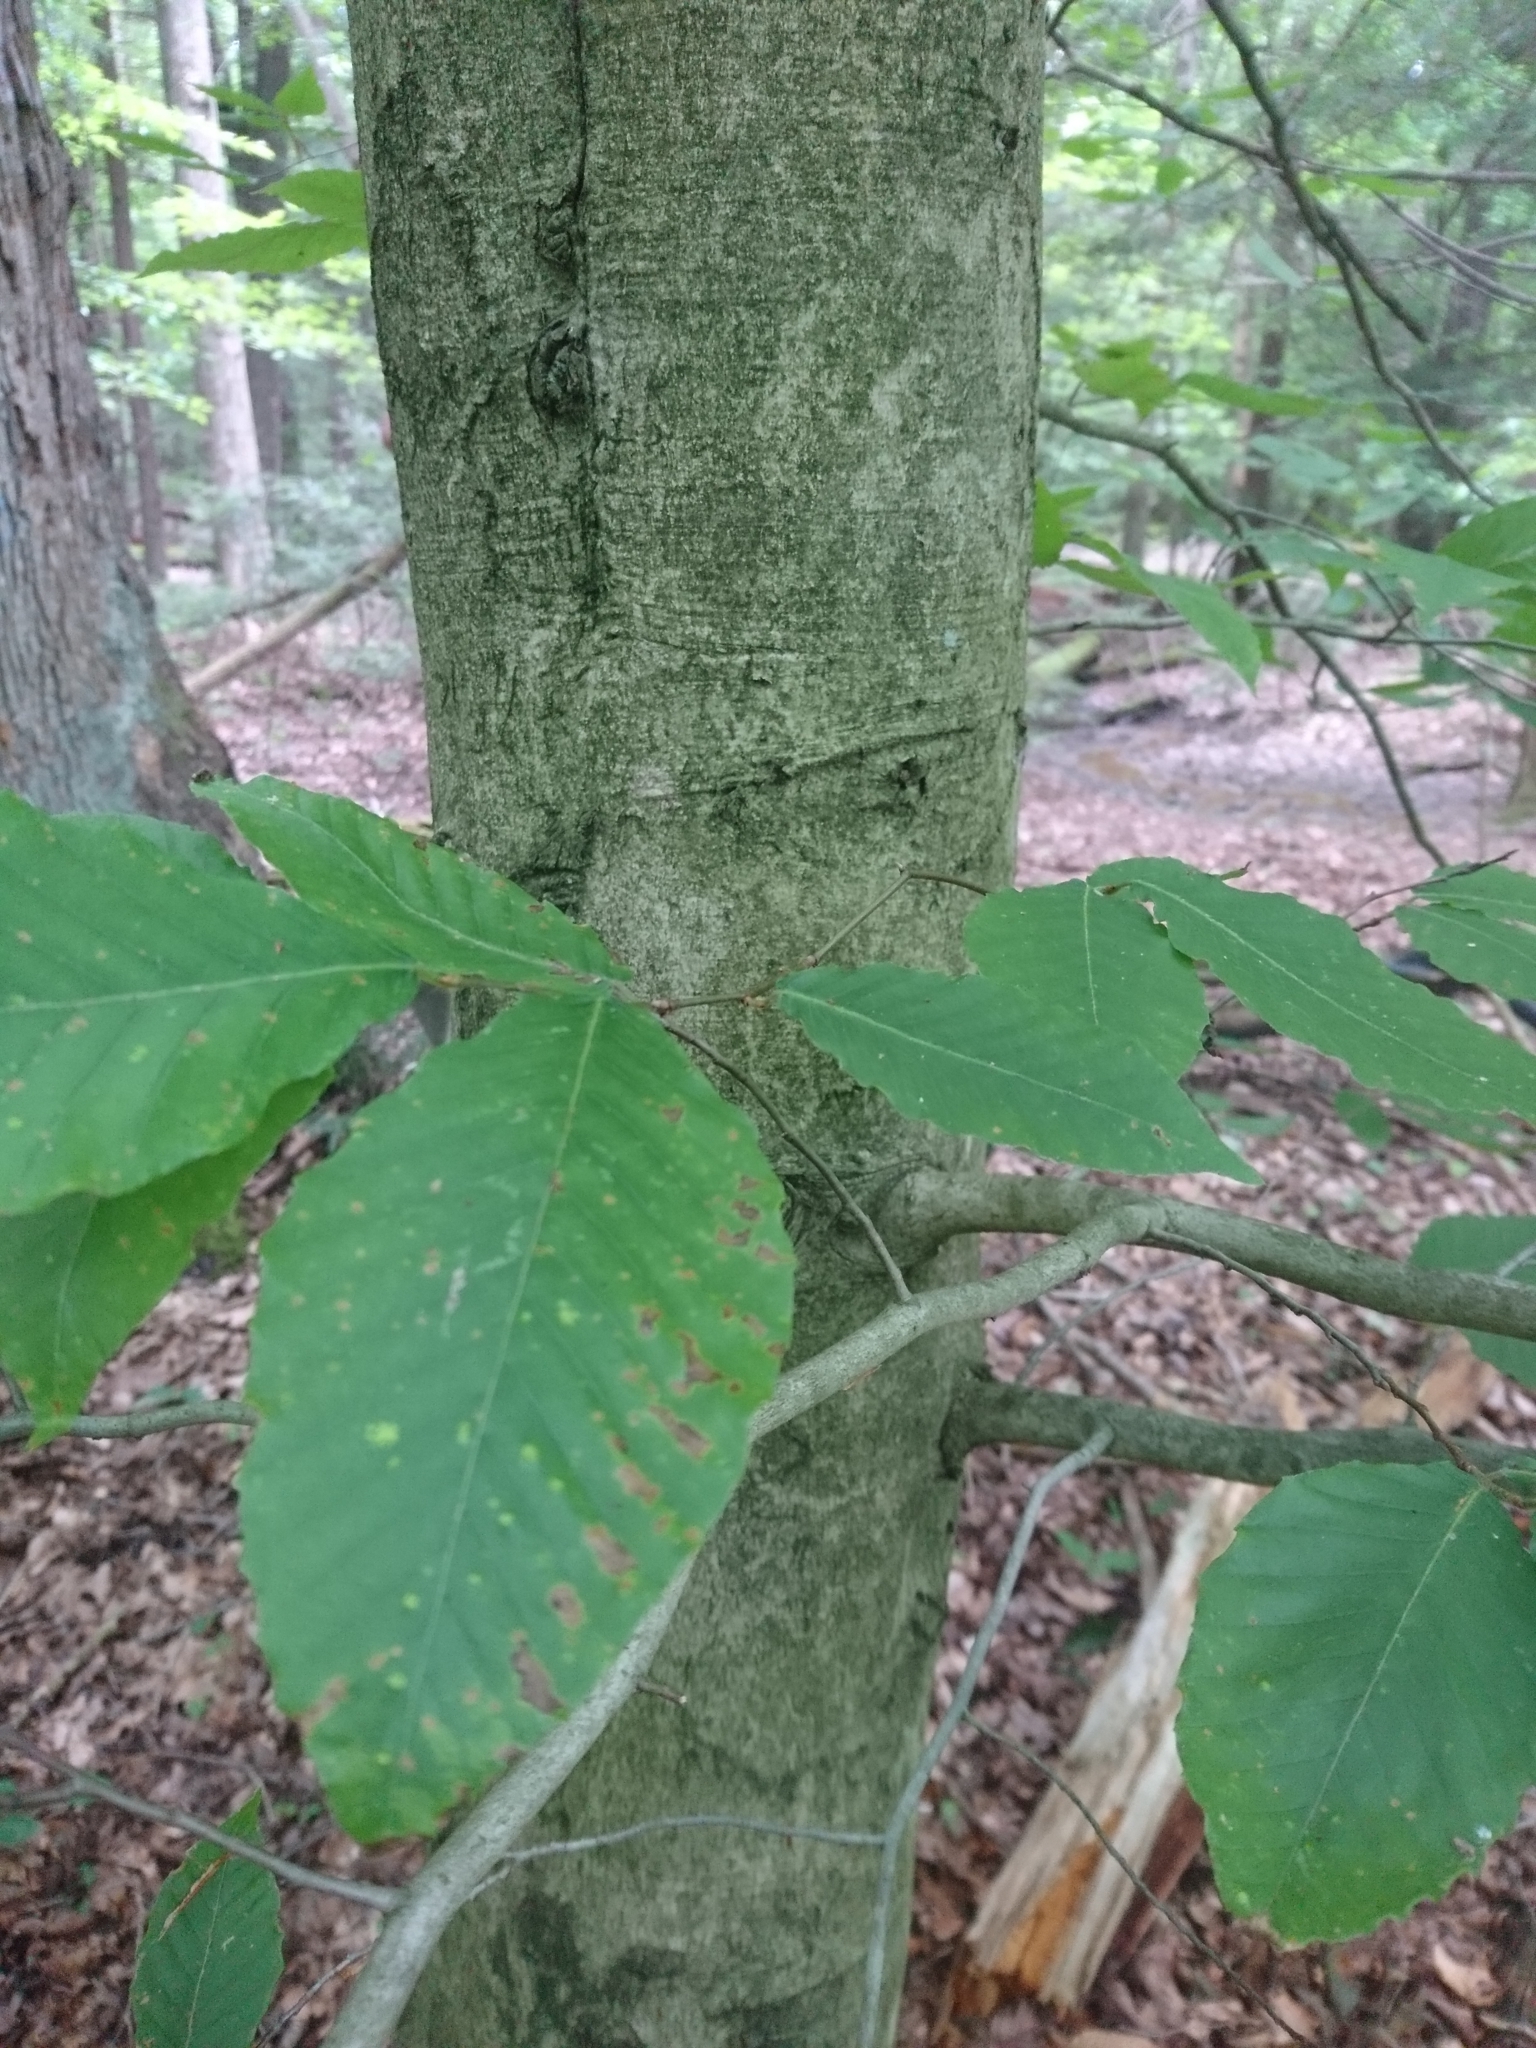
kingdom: Plantae
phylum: Tracheophyta
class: Magnoliopsida
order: Fagales
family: Fagaceae
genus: Fagus
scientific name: Fagus grandifolia
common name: American beech
